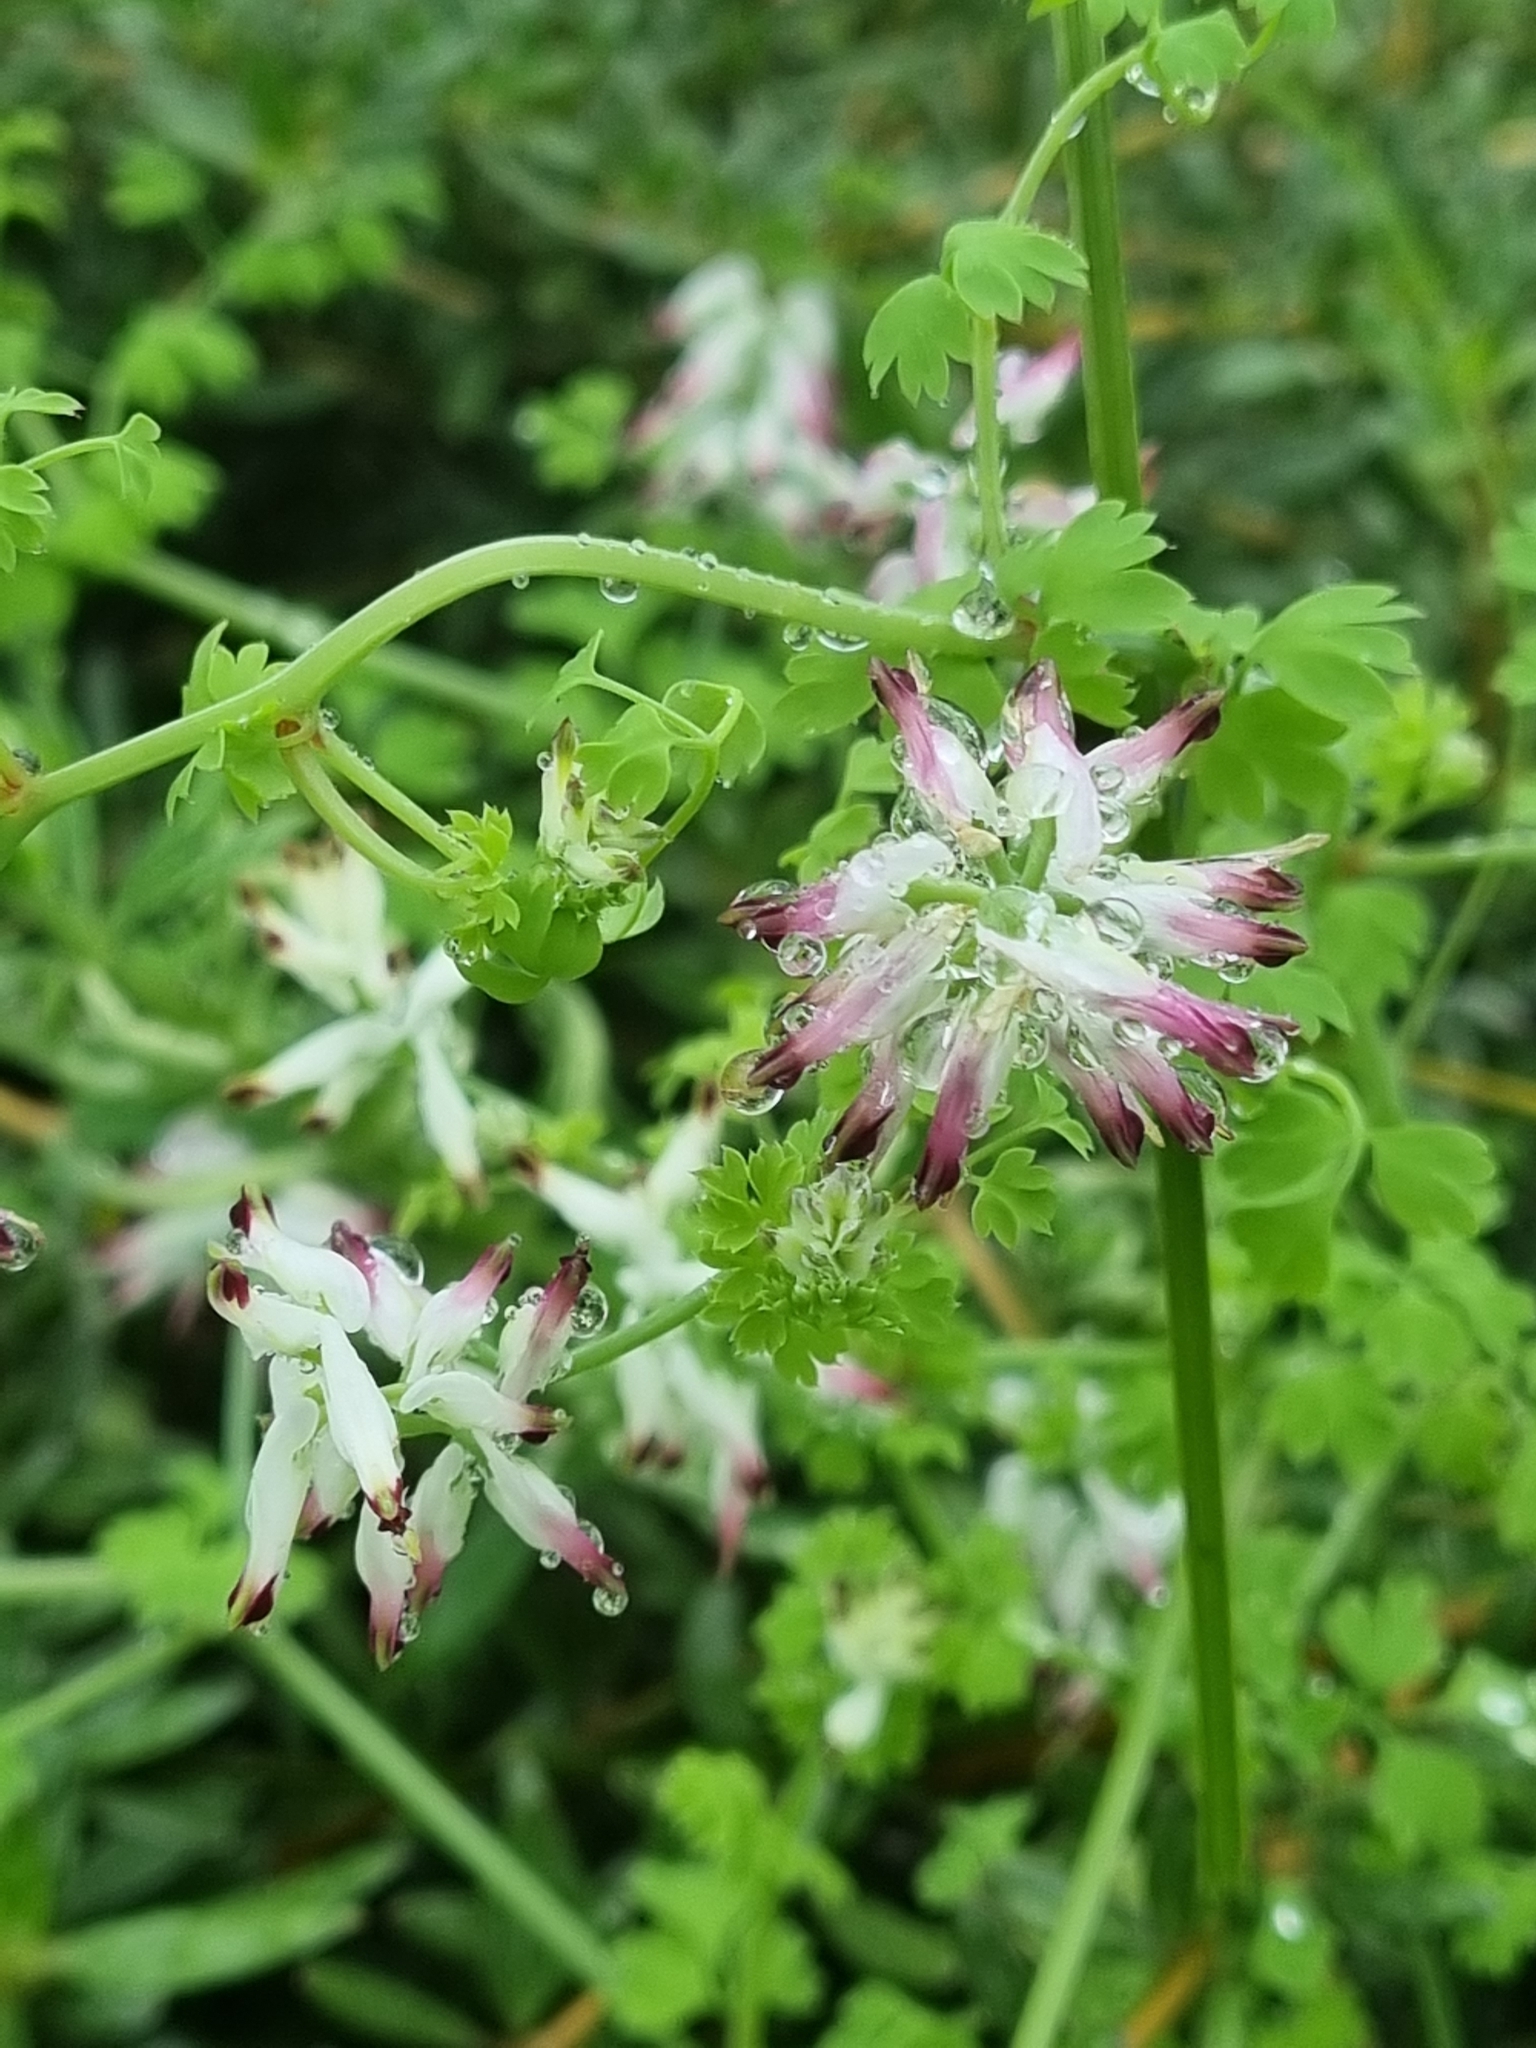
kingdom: Plantae
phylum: Tracheophyta
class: Magnoliopsida
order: Ranunculales
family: Papaveraceae
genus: Fumaria
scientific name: Fumaria capreolata
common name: White ramping-fumitory
